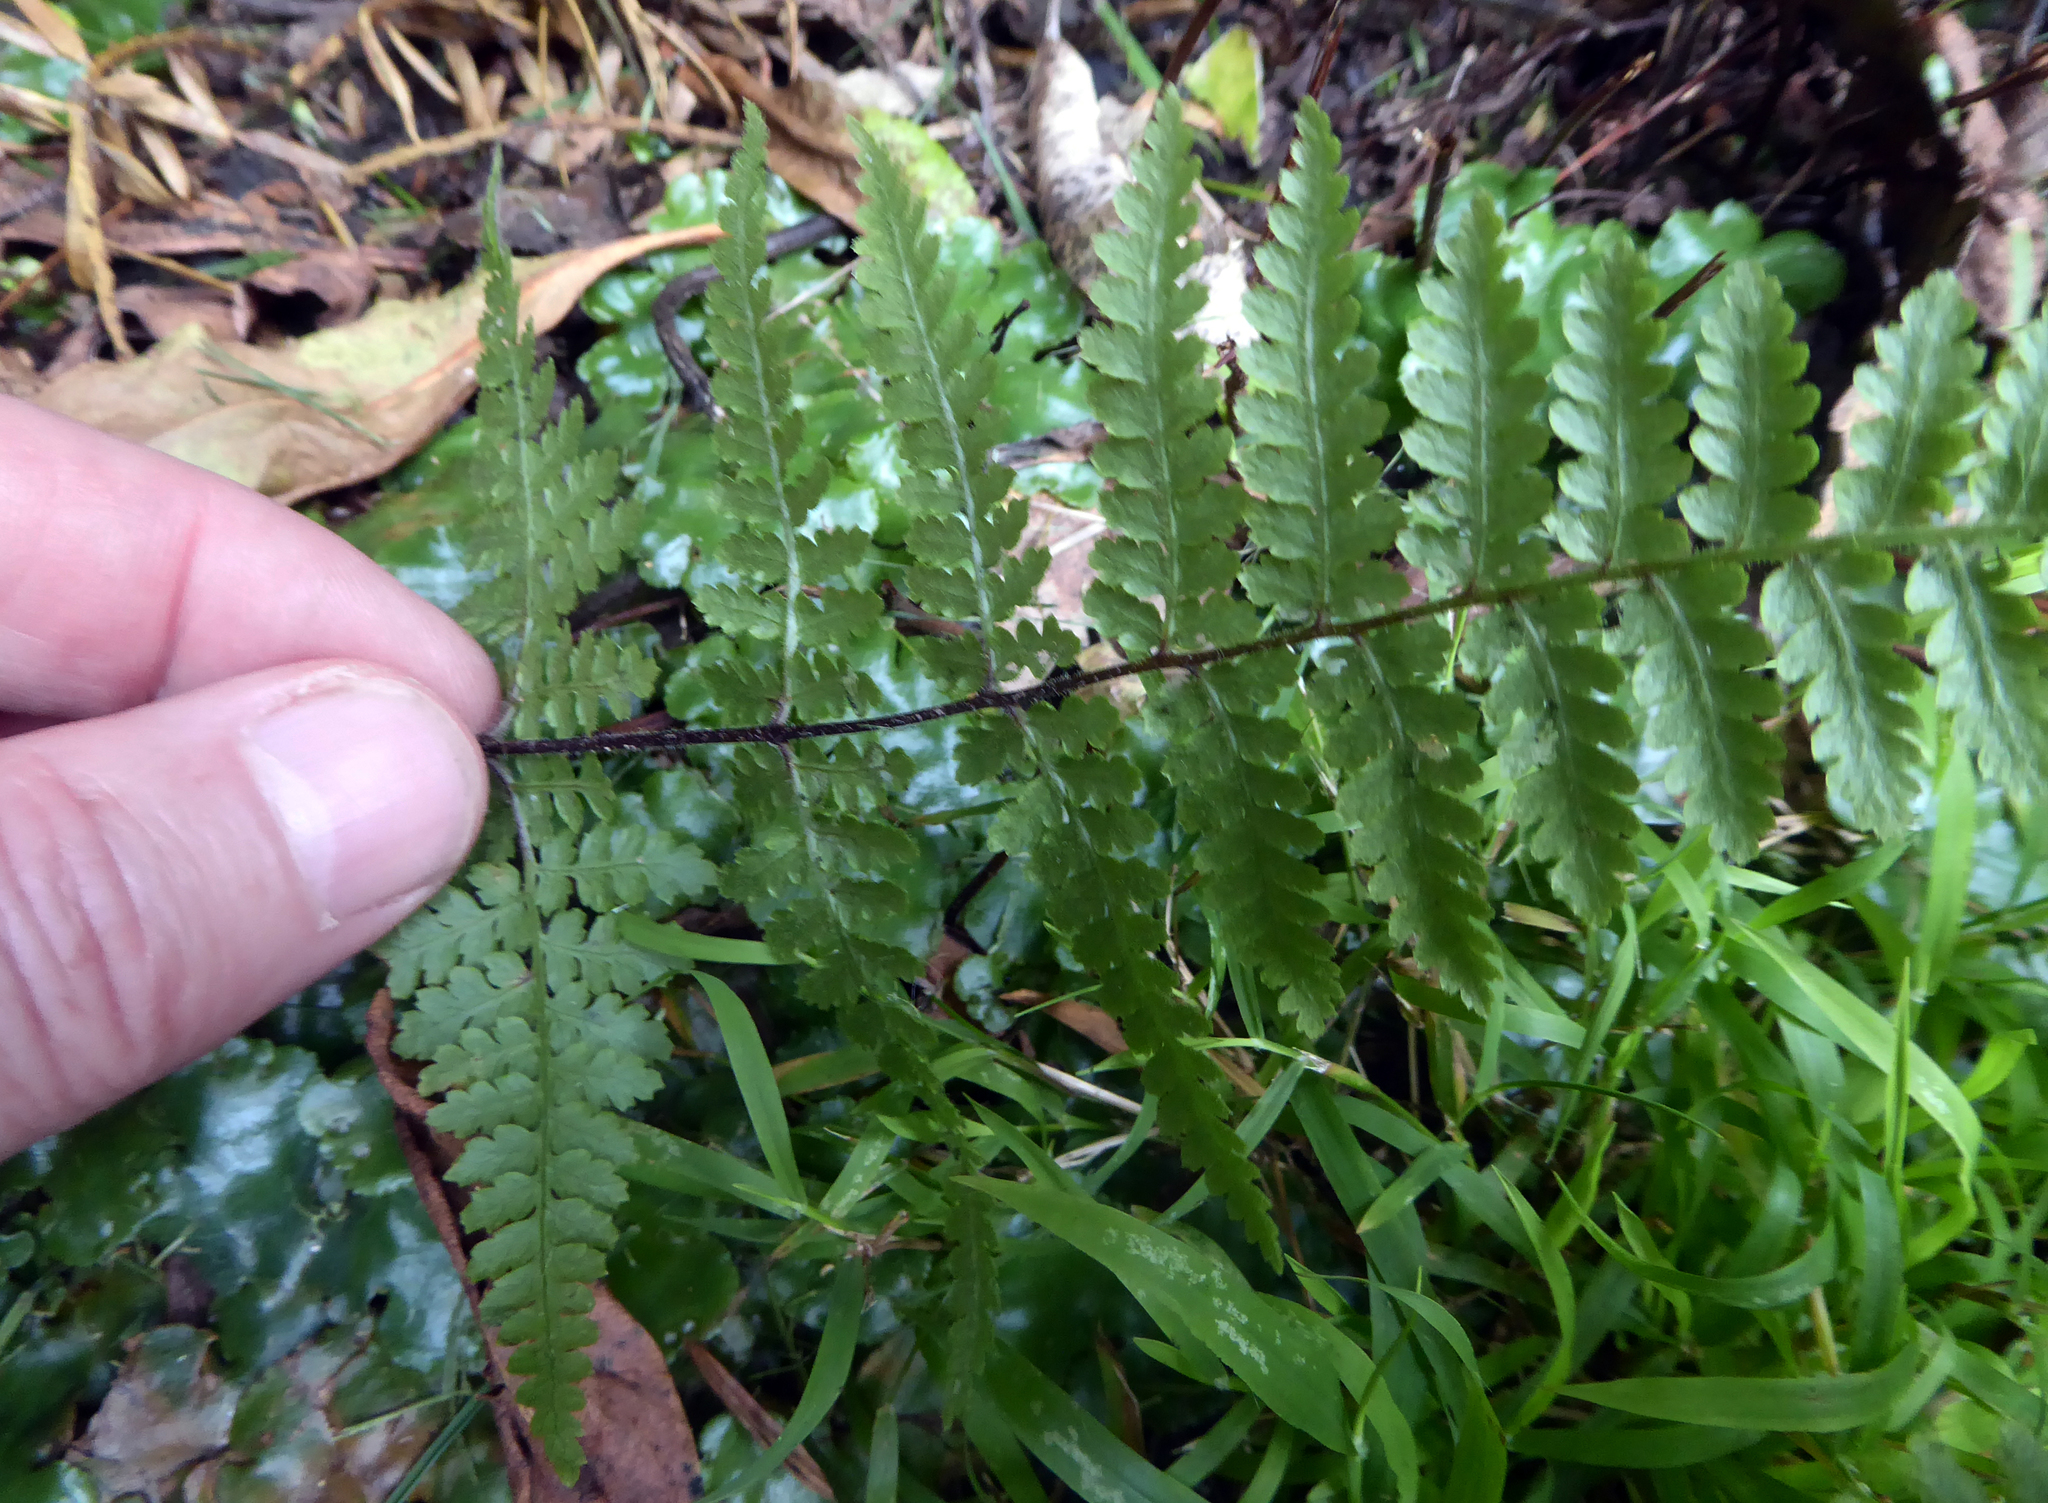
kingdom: Plantae
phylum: Tracheophyta
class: Polypodiopsida
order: Polypodiales
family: Dennstaedtiaceae
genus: Hypolepis
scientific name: Hypolepis rugosula
